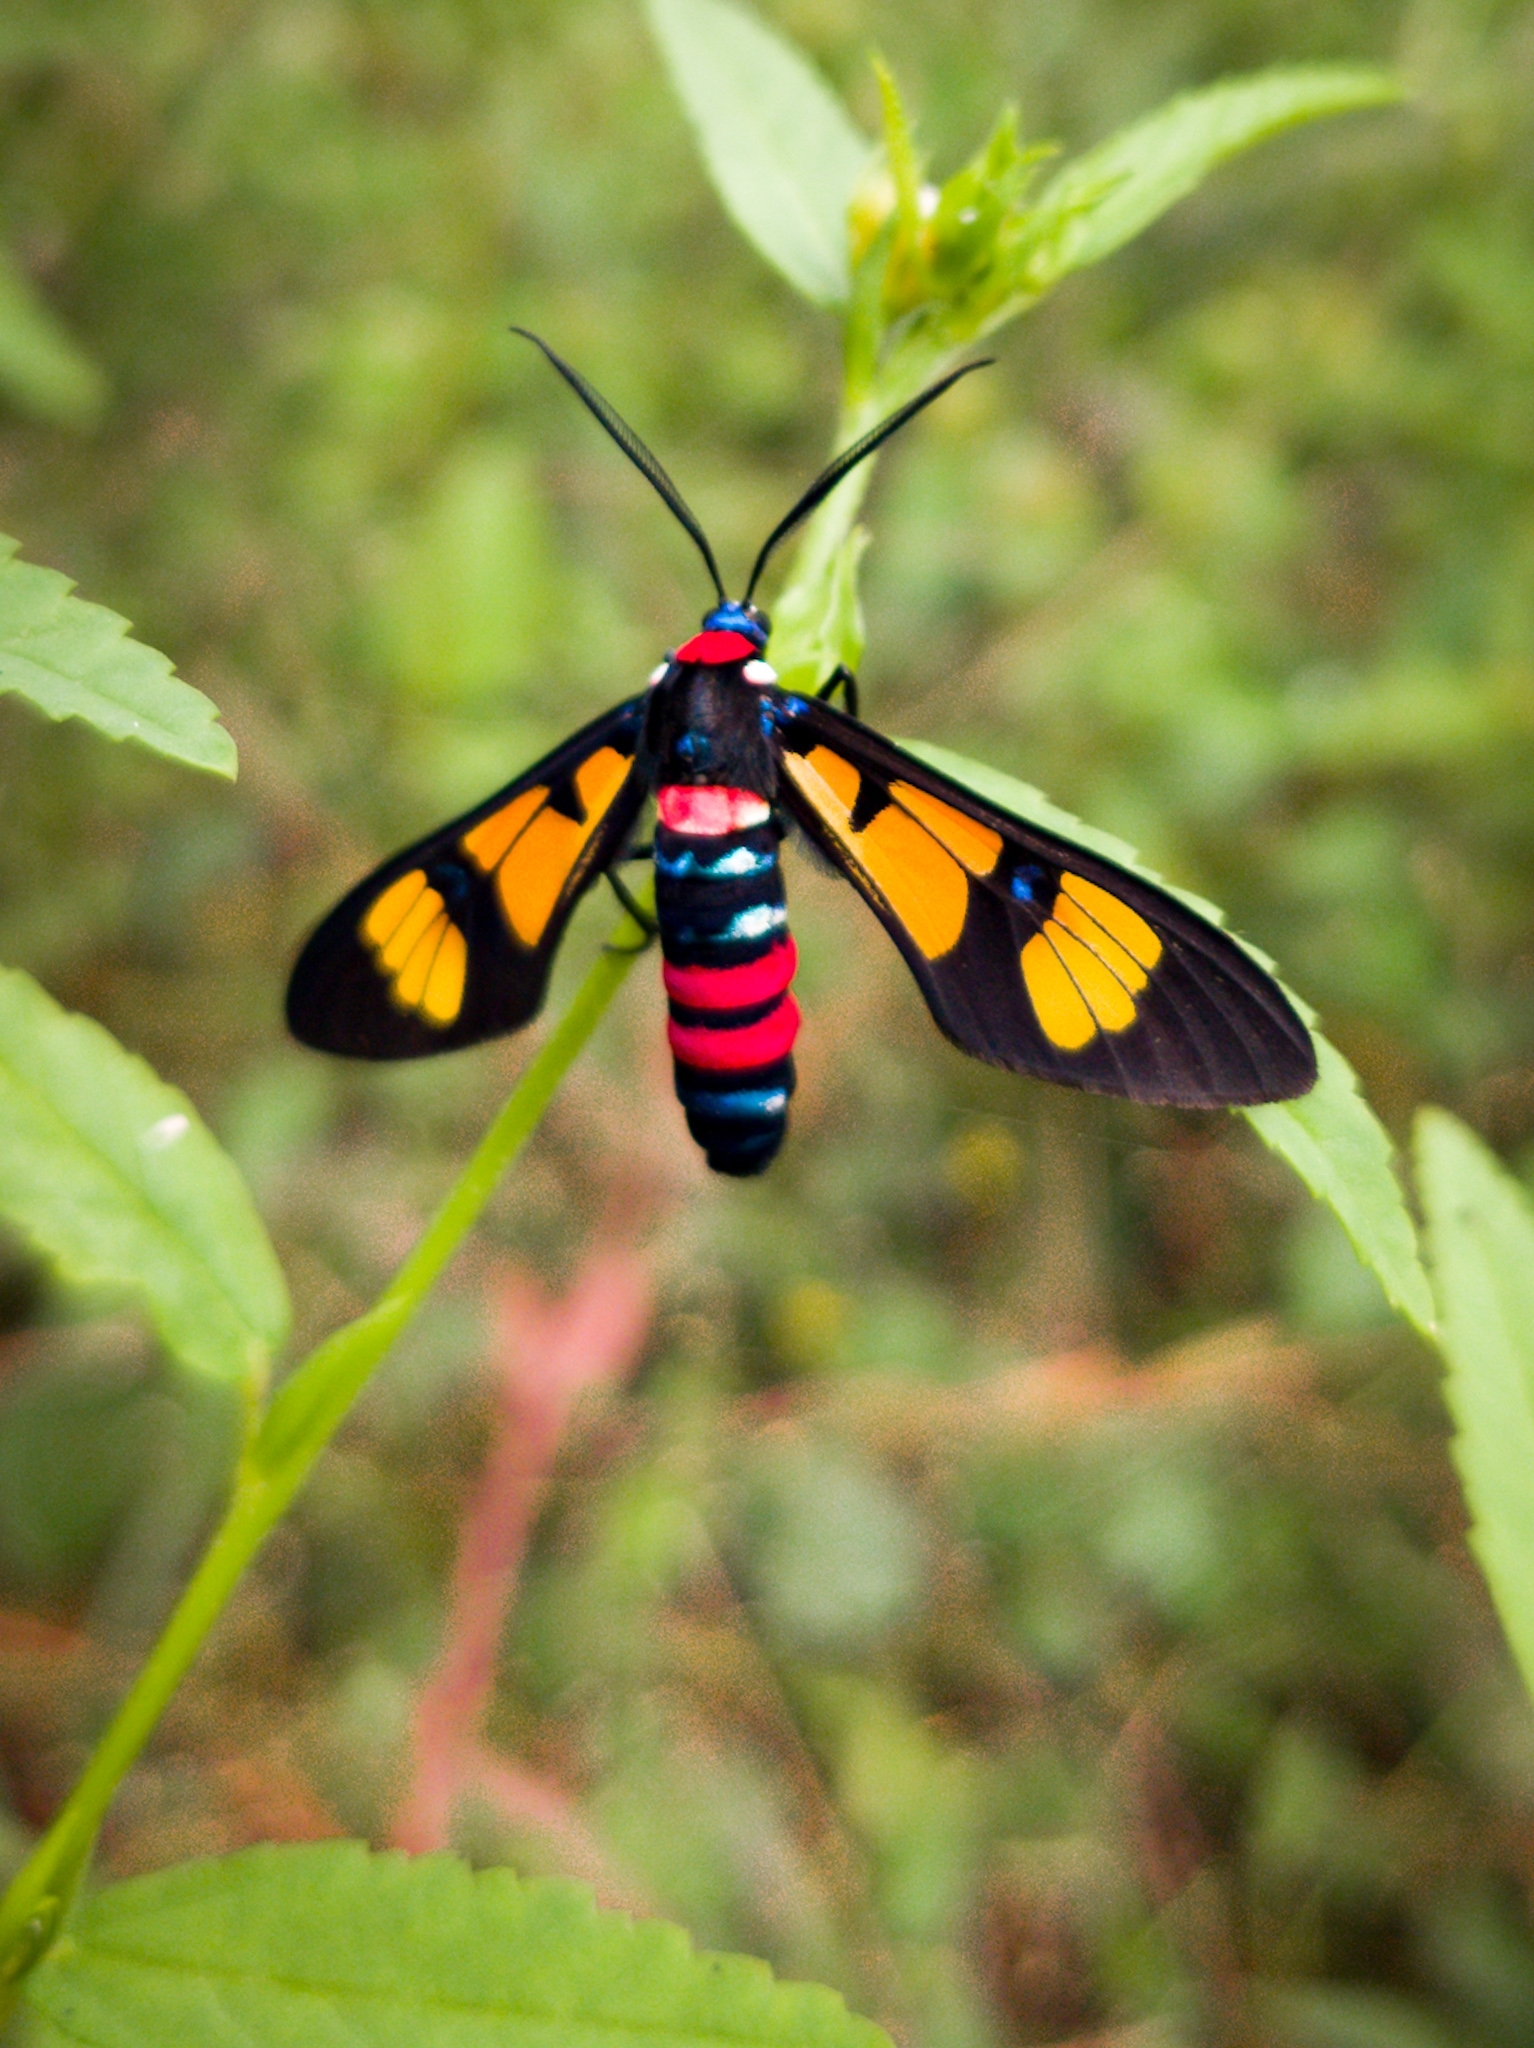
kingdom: Animalia
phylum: Arthropoda
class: Insecta
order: Lepidoptera
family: Erebidae
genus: Euchromia
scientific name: Euchromia polymena
